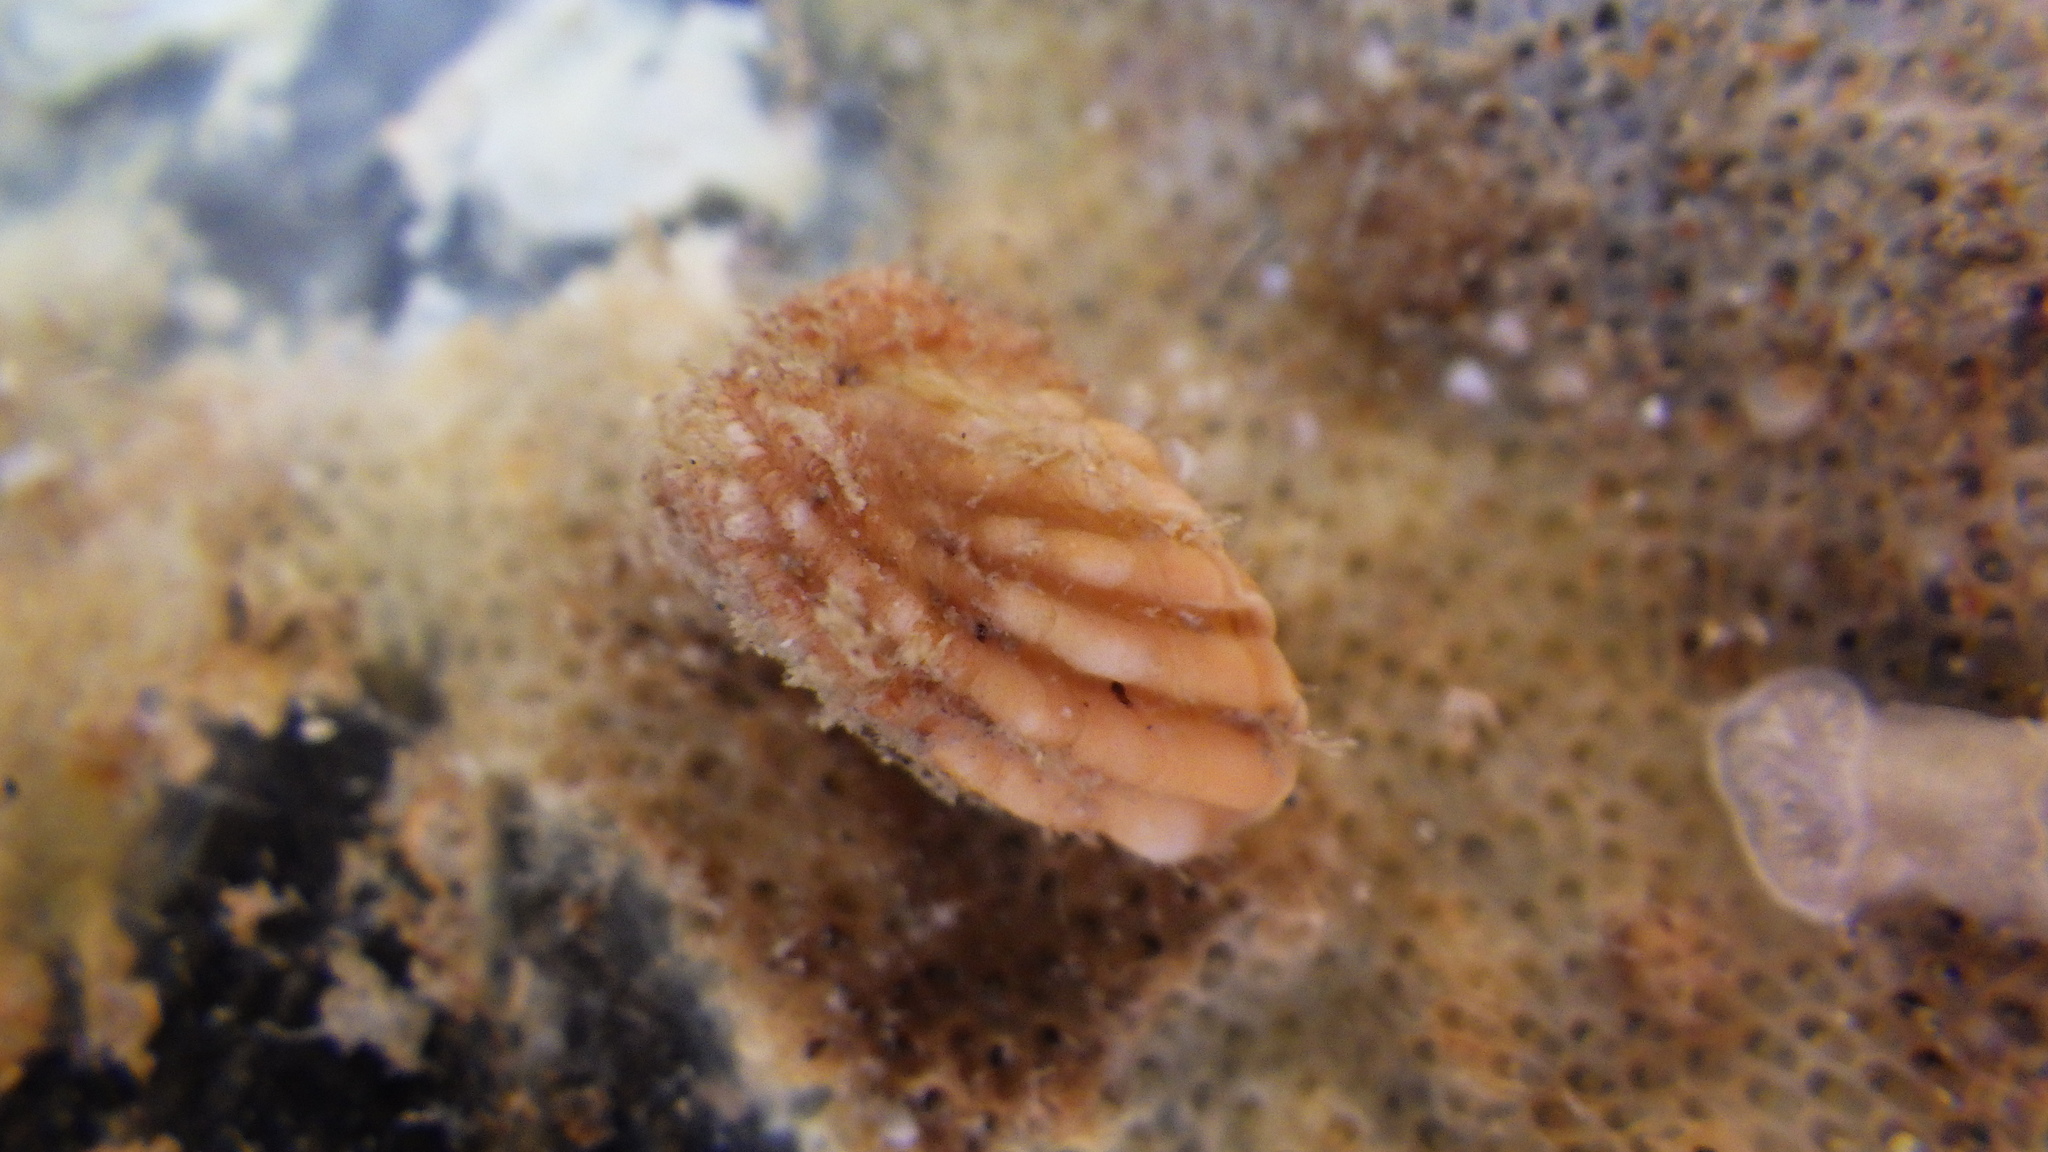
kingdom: Animalia
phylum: Mollusca
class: Bivalvia
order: Carditida
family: Carditidae
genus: Cardita
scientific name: Cardita distorta
